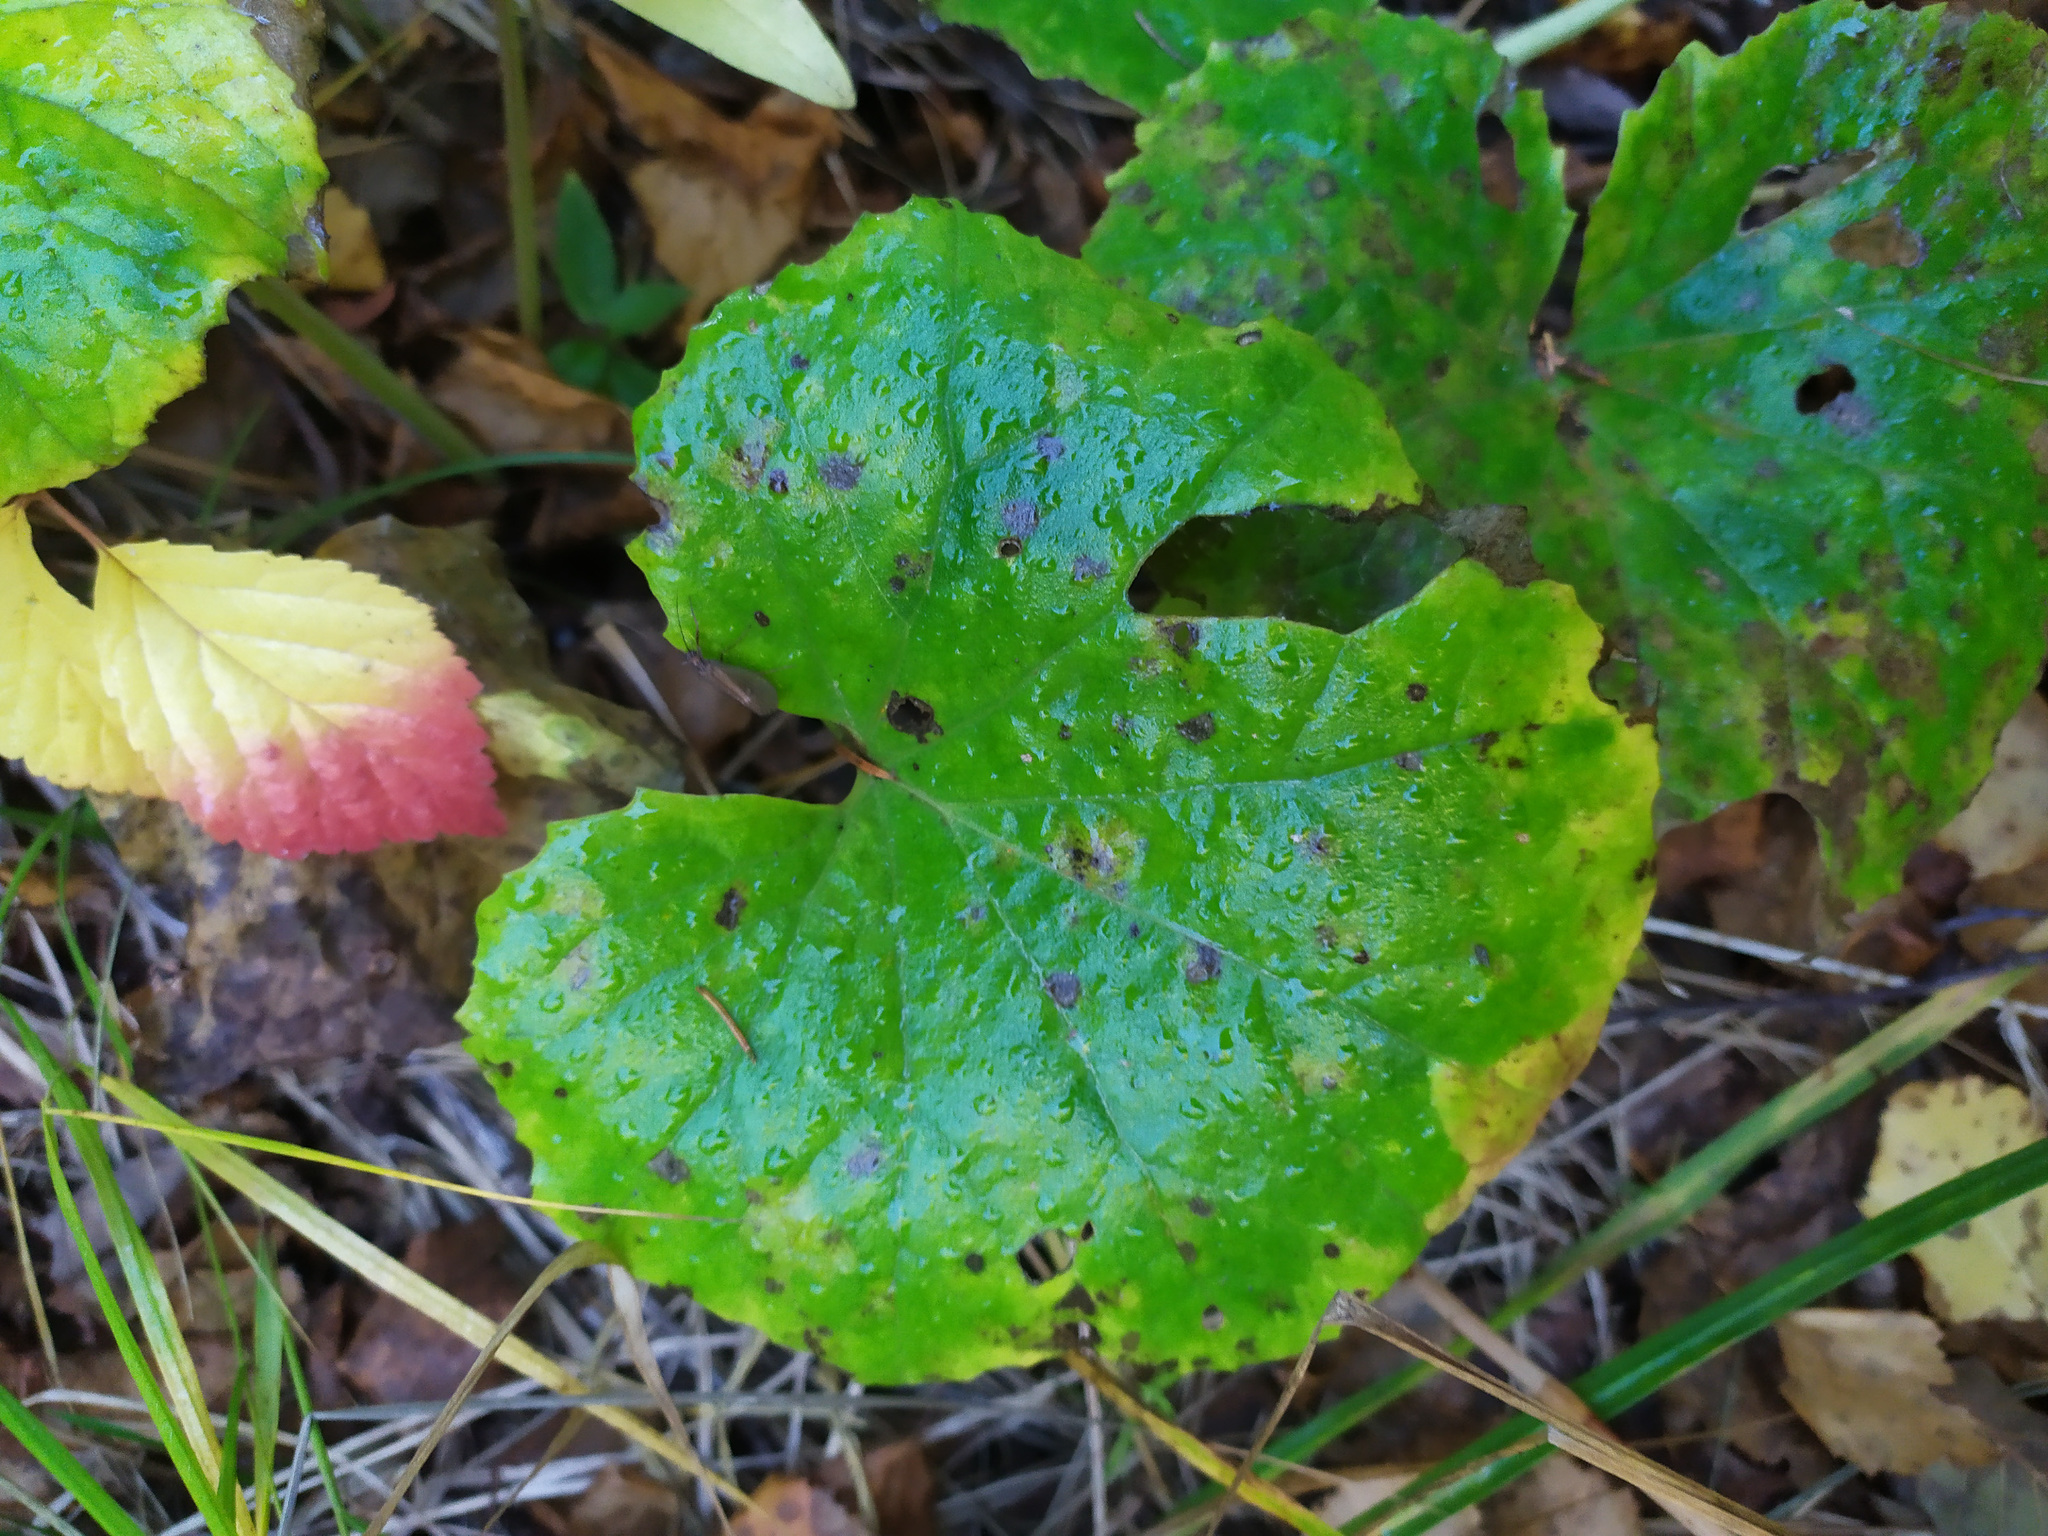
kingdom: Plantae
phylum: Tracheophyta
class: Magnoliopsida
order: Asterales
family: Asteraceae
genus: Tussilago
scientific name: Tussilago farfara
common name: Coltsfoot
